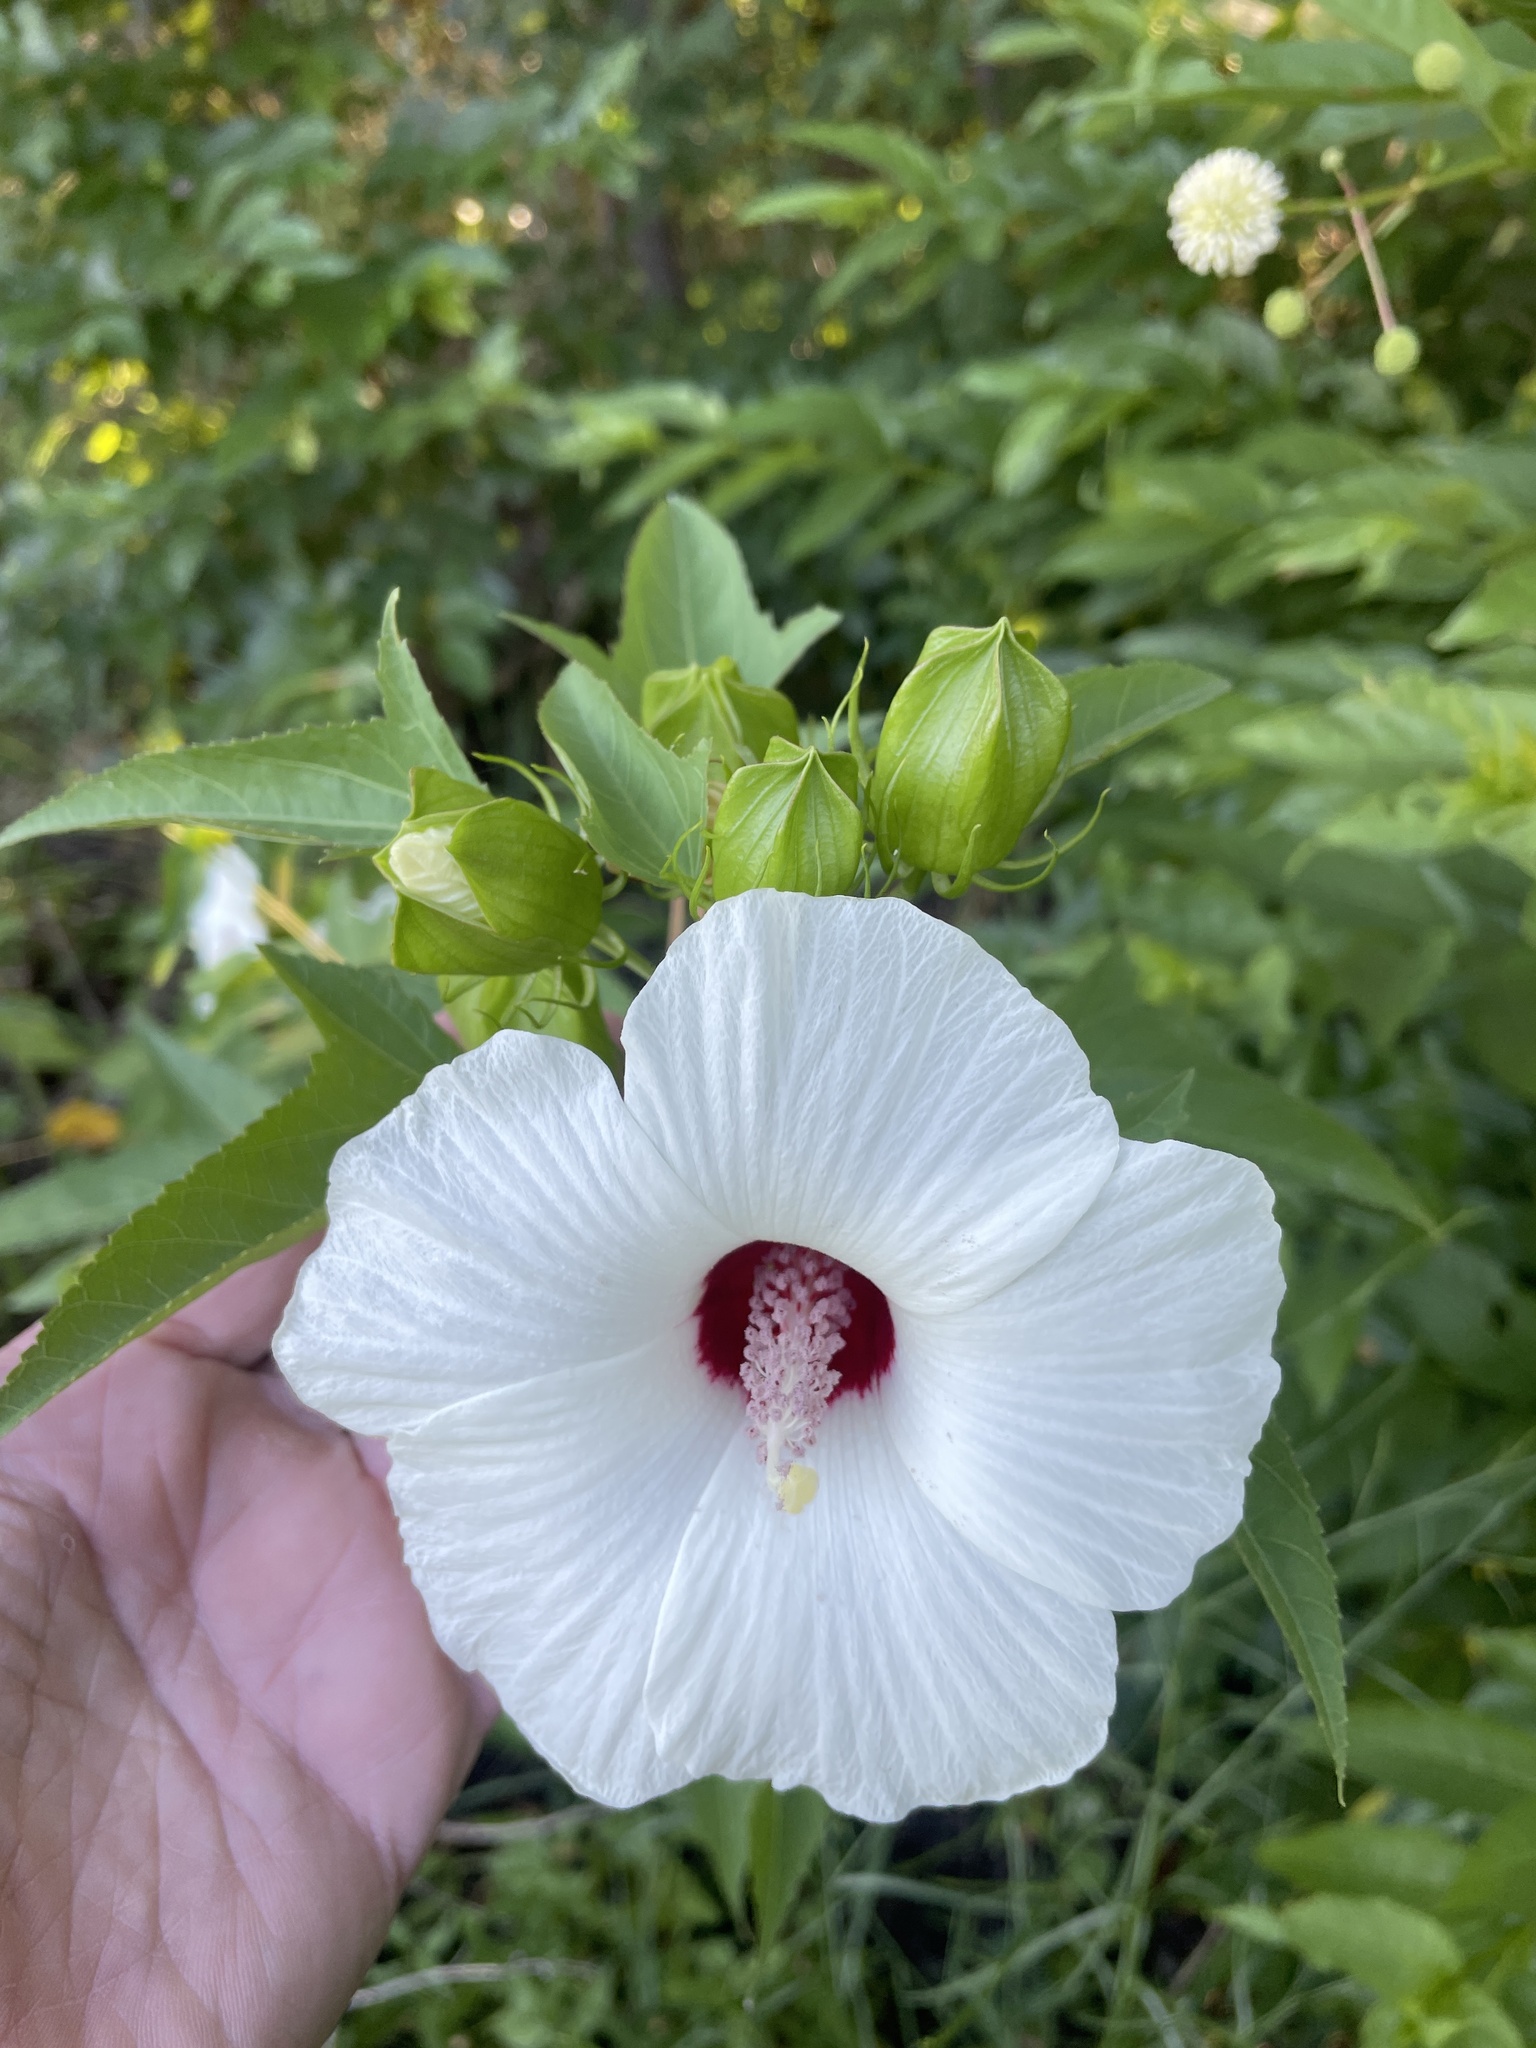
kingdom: Plantae
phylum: Tracheophyta
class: Magnoliopsida
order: Malvales
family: Malvaceae
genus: Hibiscus
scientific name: Hibiscus laevis
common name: Scarlet rose-mallow
